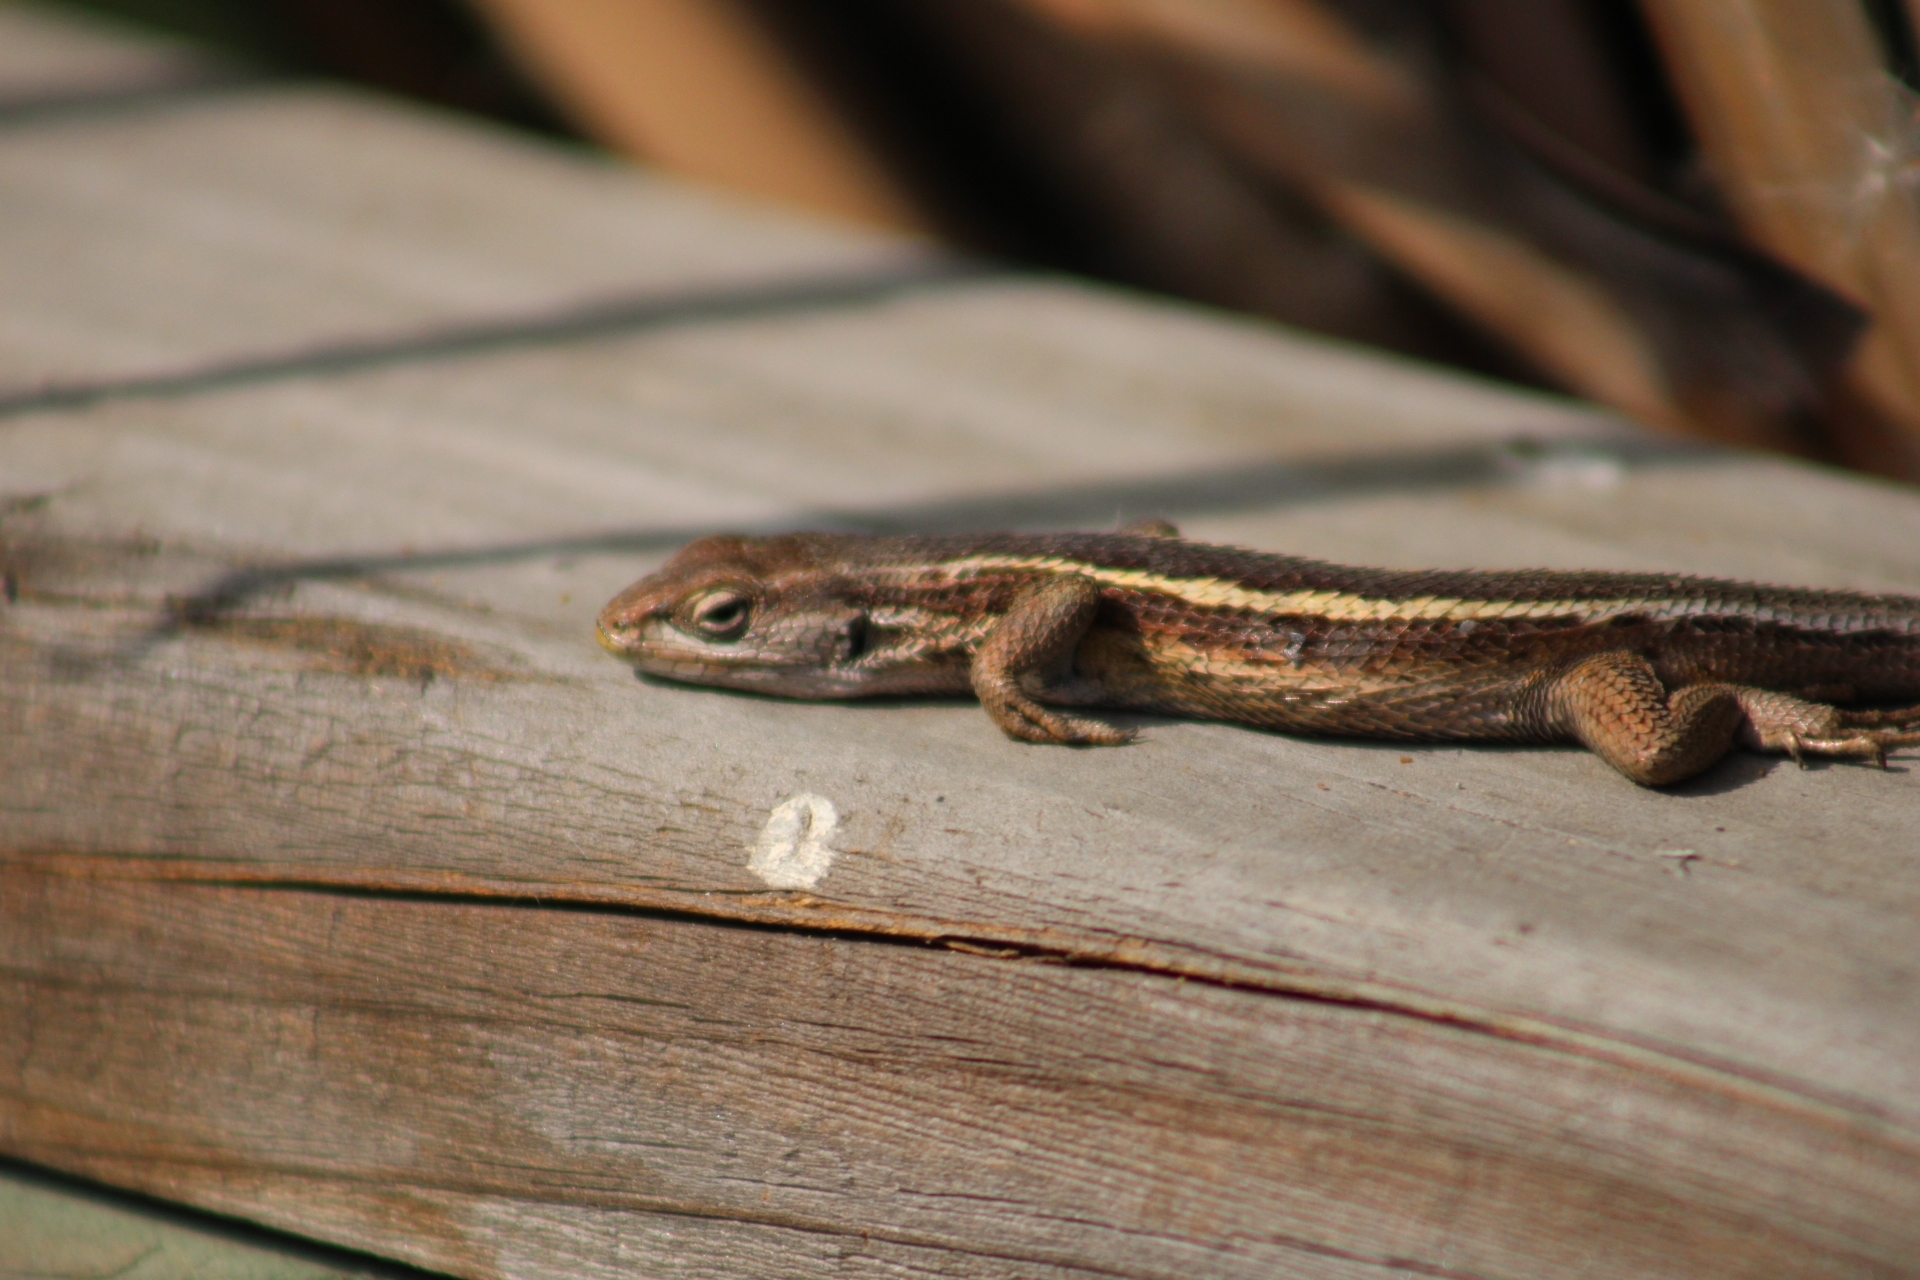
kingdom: Animalia
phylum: Chordata
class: Squamata
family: Liolaemidae
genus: Liolaemus
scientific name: Liolaemus gravenhorstii
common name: Gravenhorst's tree iguana
